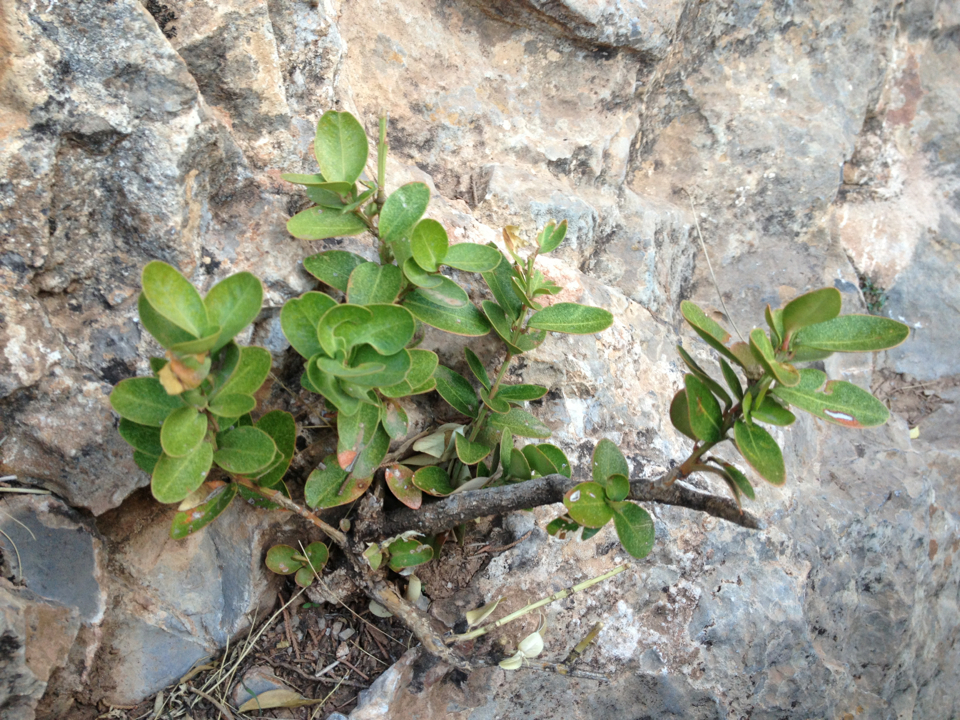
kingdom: Plantae
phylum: Tracheophyta
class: Magnoliopsida
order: Buxales
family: Buxaceae
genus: Buxus
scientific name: Buxus balearica
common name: Balearic box
